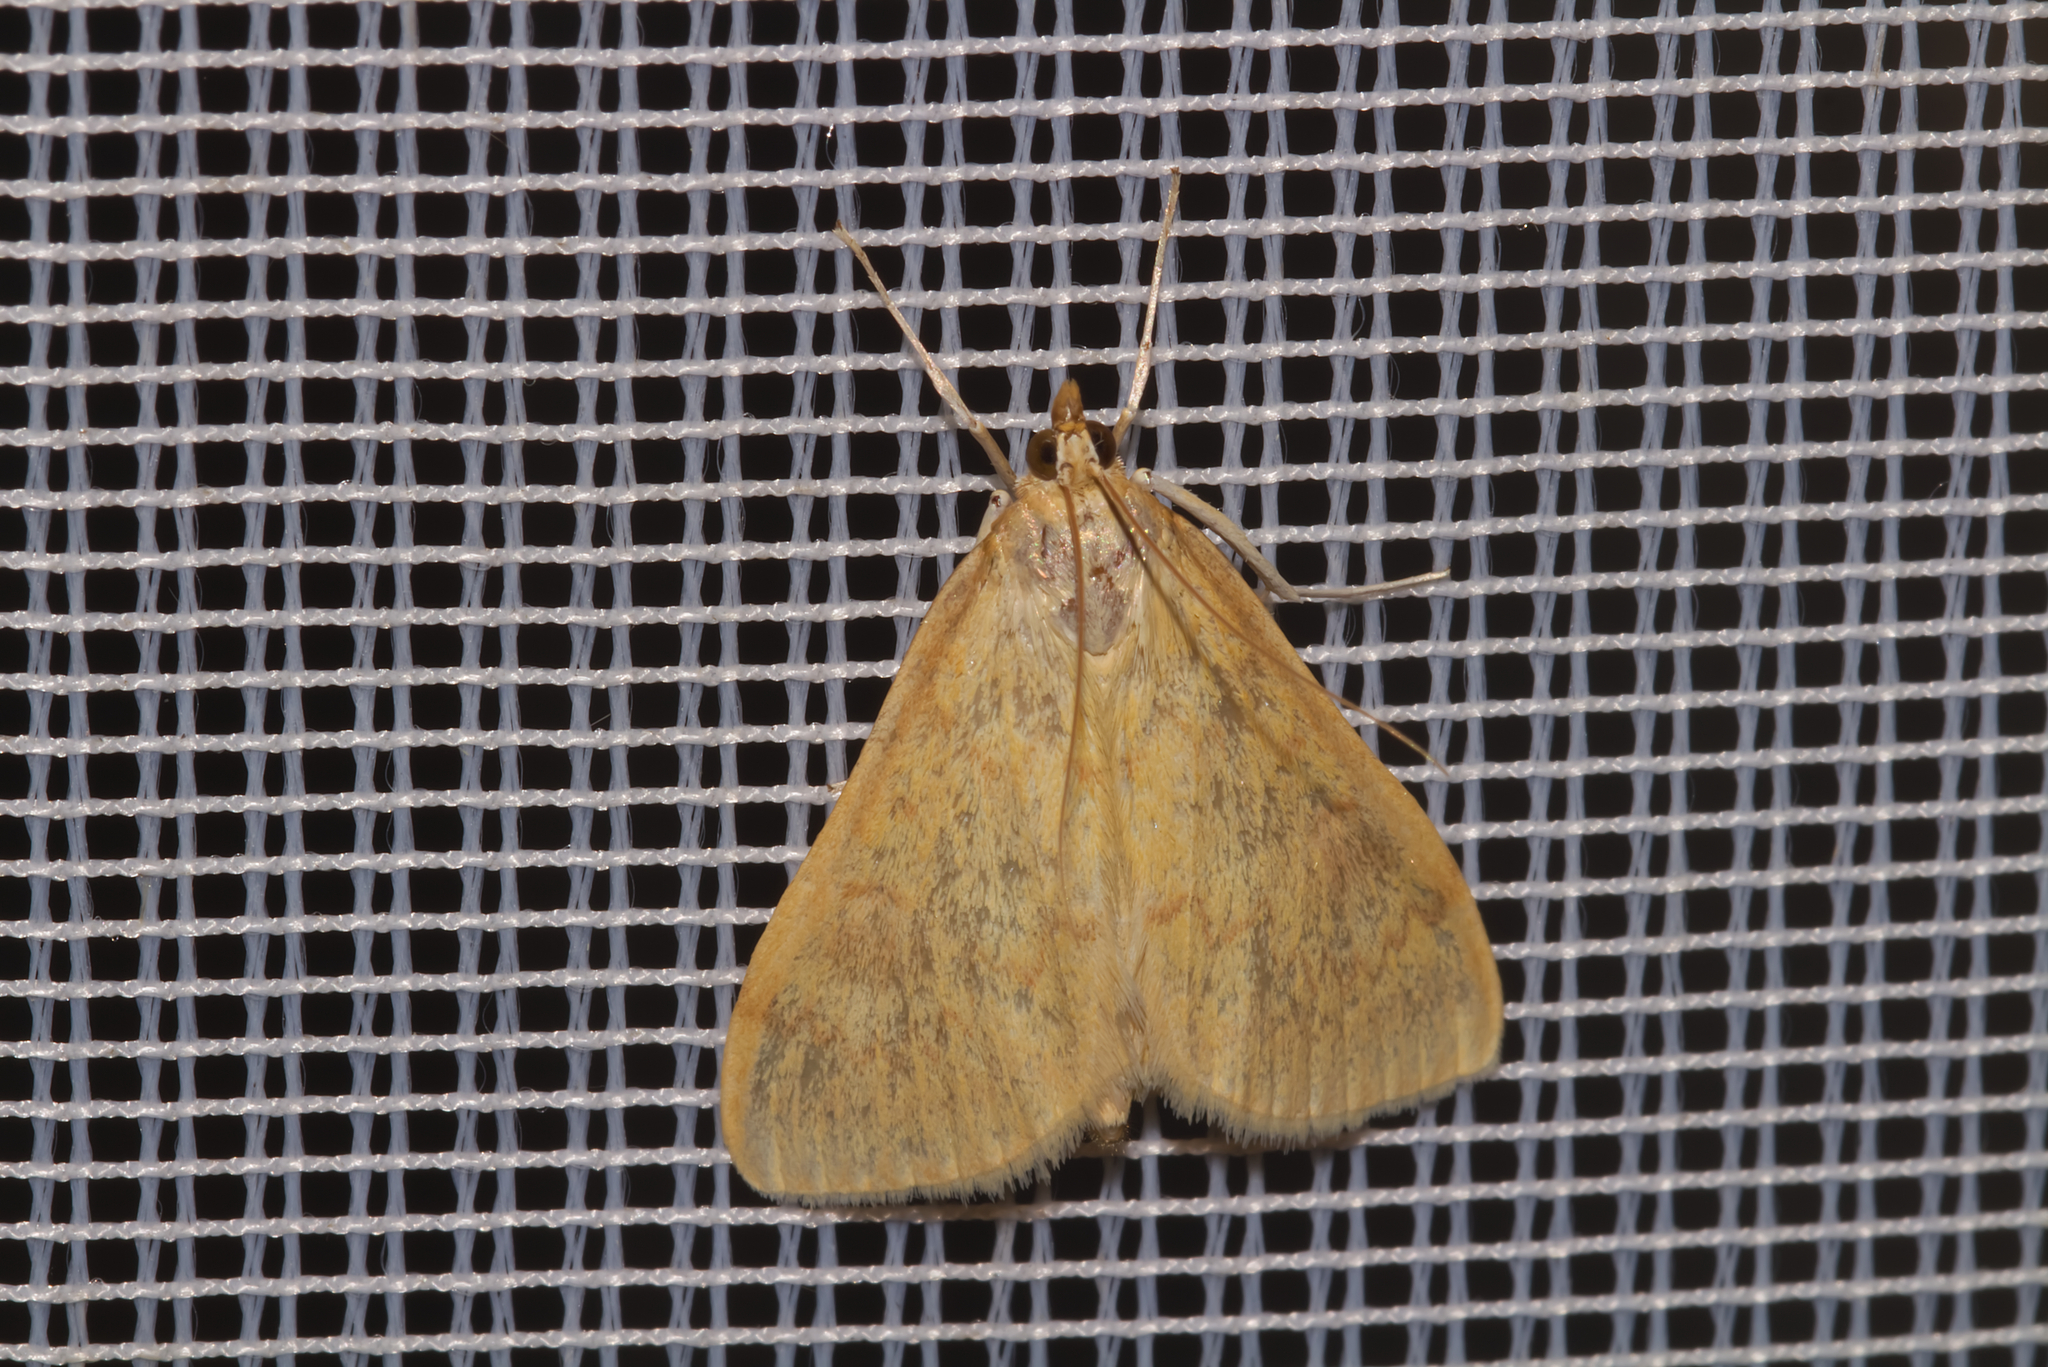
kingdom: Animalia
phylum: Arthropoda
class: Insecta
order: Lepidoptera
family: Crambidae
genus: Sitochroa
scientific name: Sitochroa verticalis
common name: Lesser pearl
